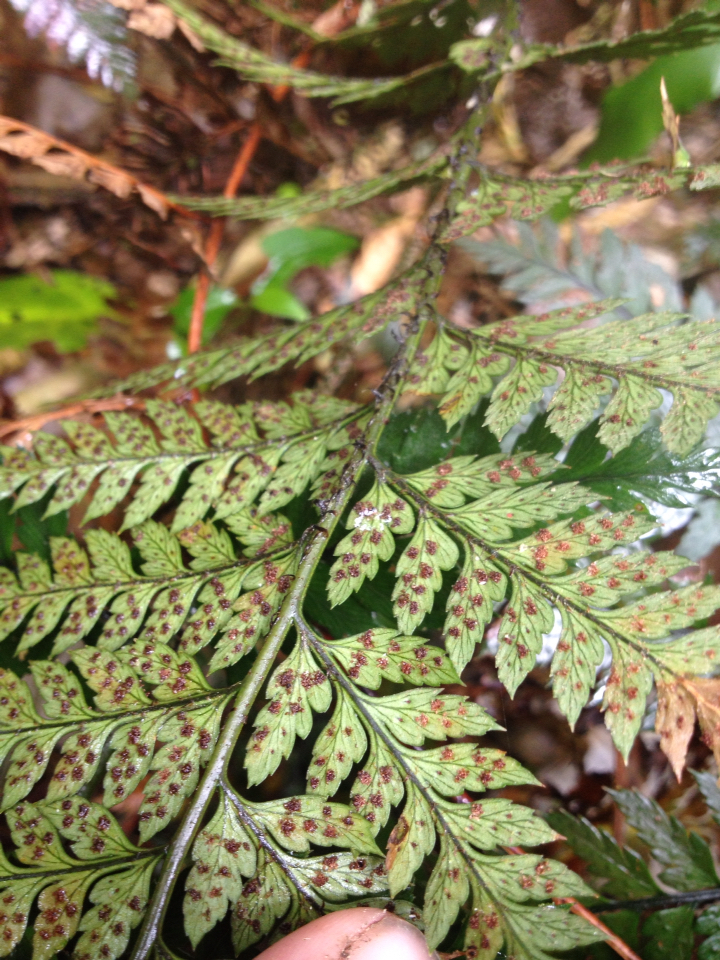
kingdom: Plantae
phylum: Tracheophyta
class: Polypodiopsida
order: Polypodiales
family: Dryopteridaceae
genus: Polystichum
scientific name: Polystichum neozelandicum
